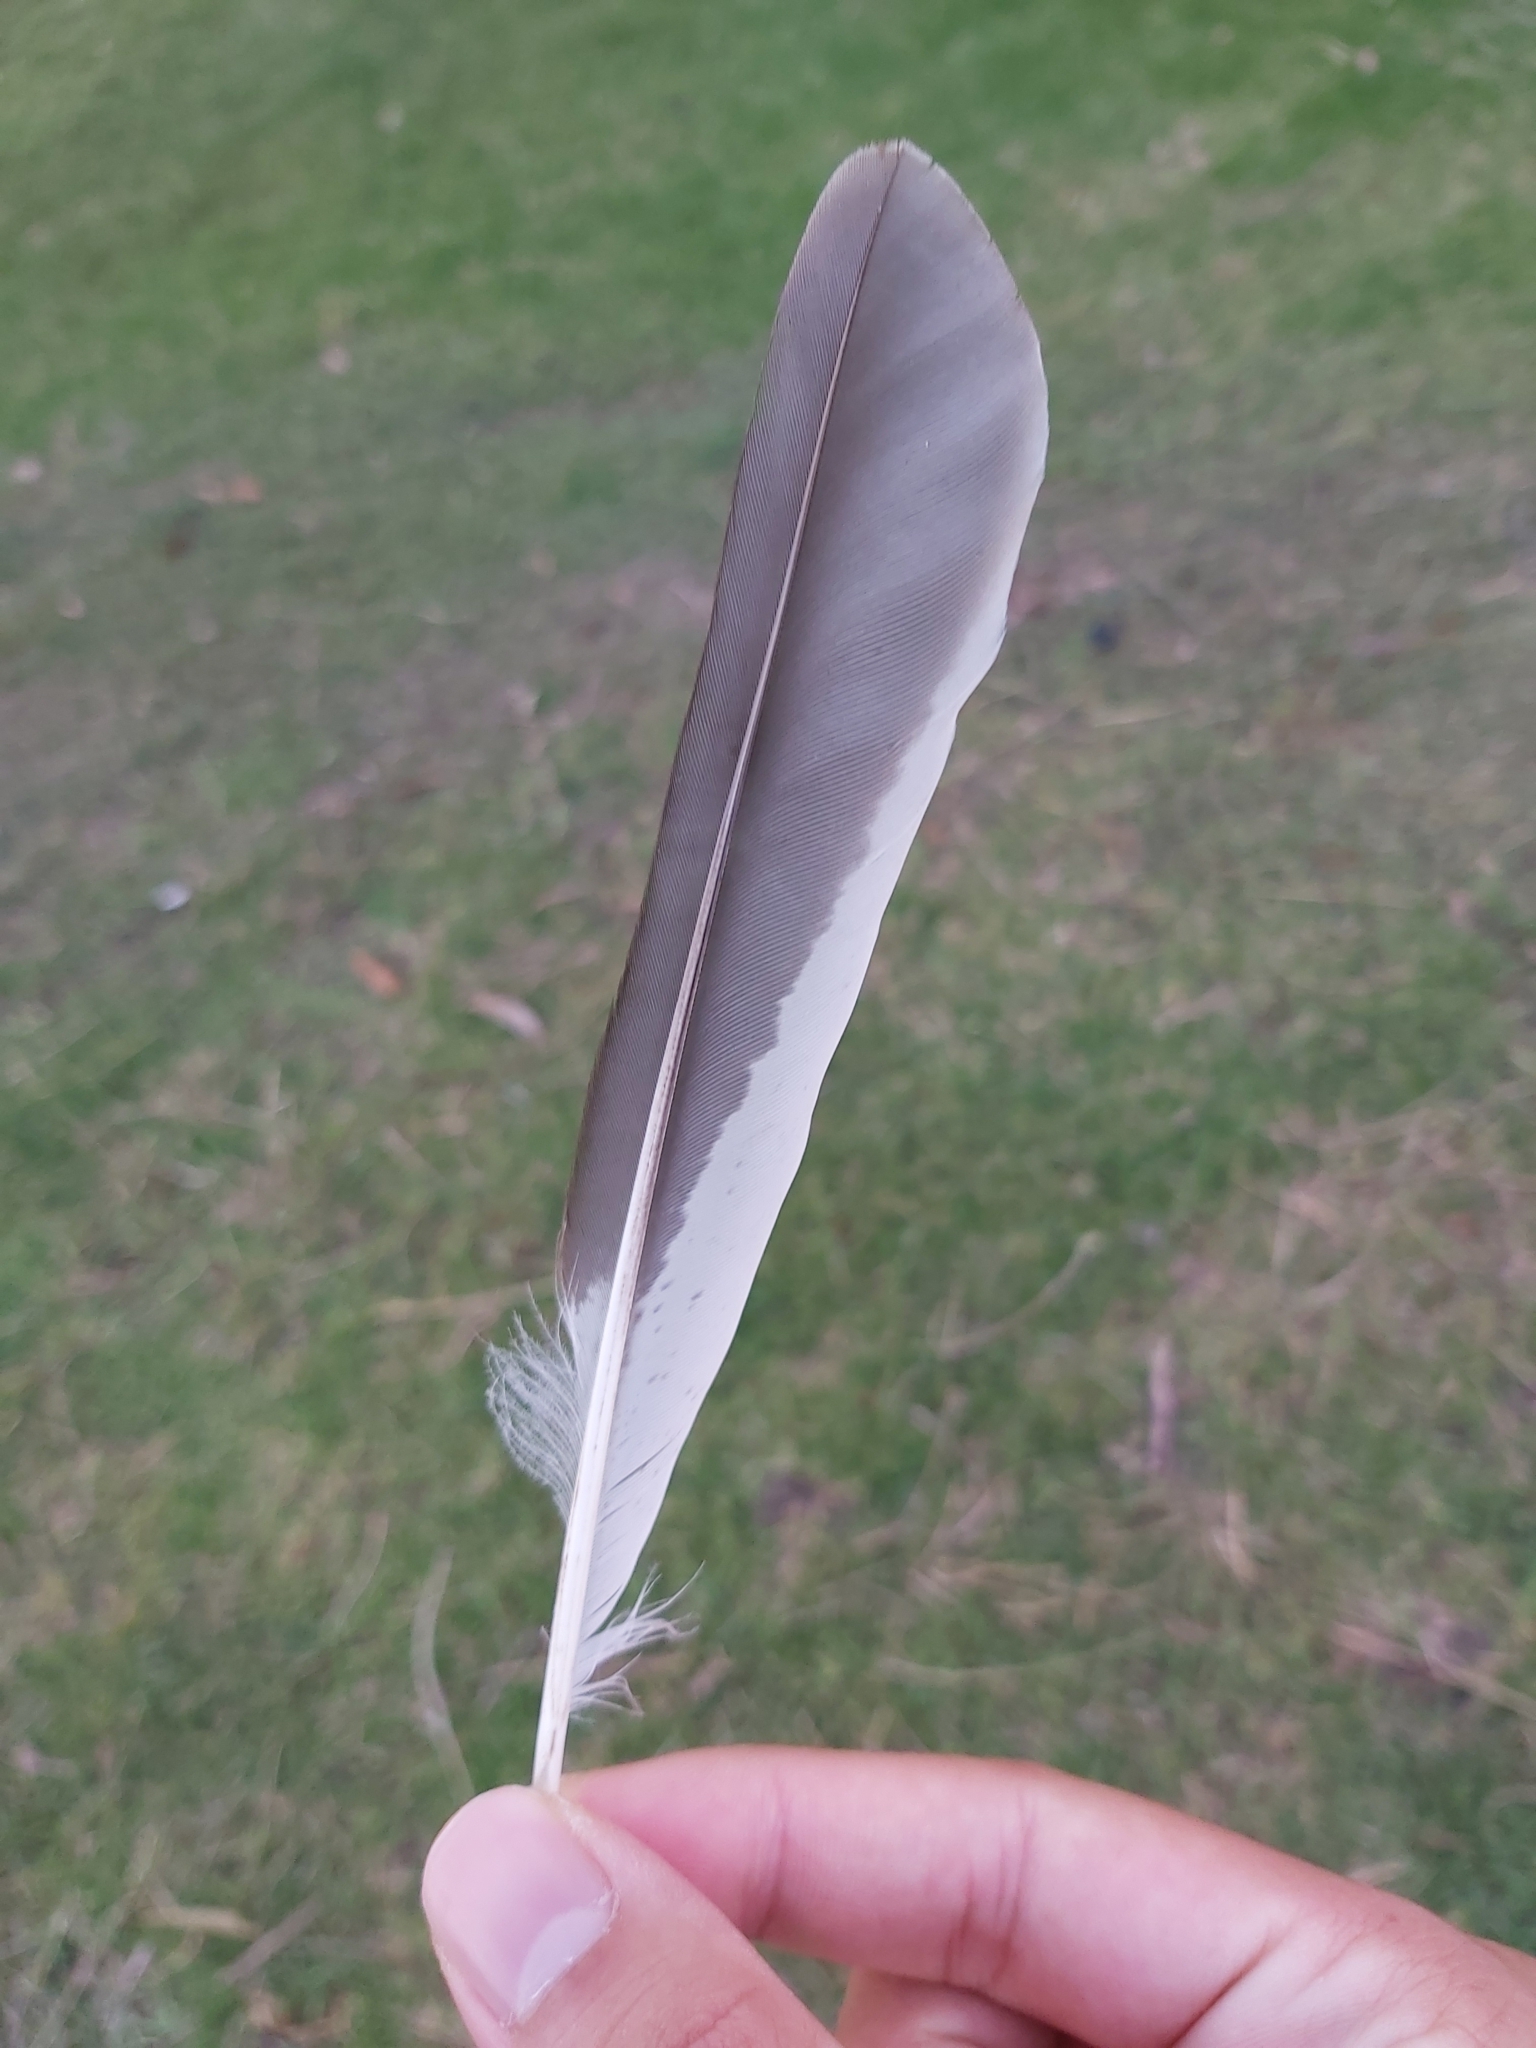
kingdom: Animalia
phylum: Chordata
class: Aves
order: Coraciiformes
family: Alcedinidae
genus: Dacelo
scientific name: Dacelo novaeguineae
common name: Laughing kookaburra
